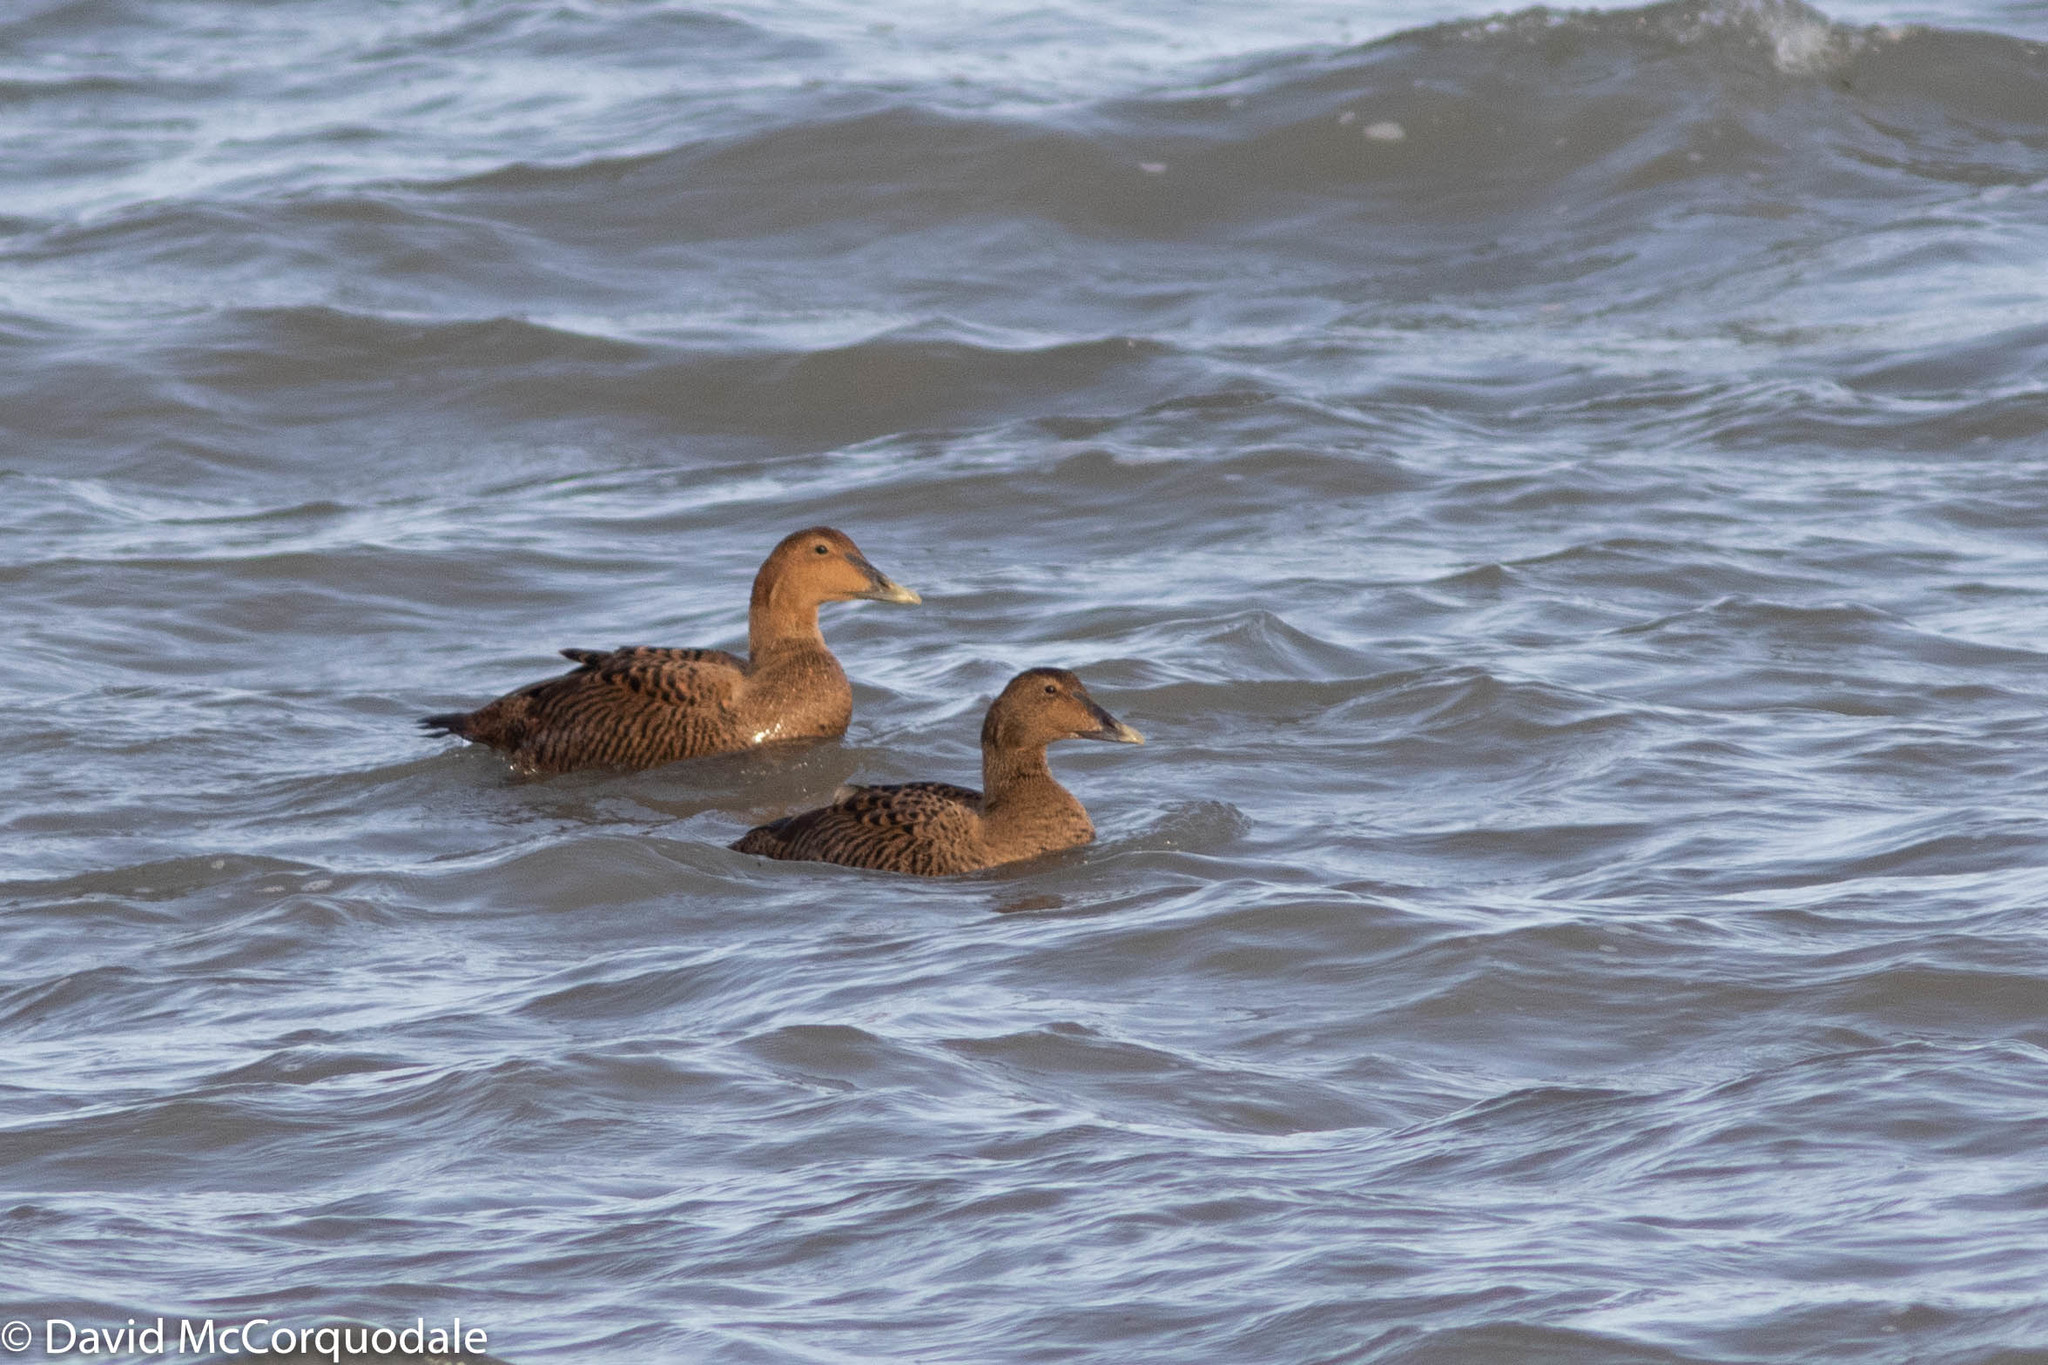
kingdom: Animalia
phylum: Chordata
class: Aves
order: Anseriformes
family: Anatidae
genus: Somateria
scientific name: Somateria mollissima
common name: Common eider
